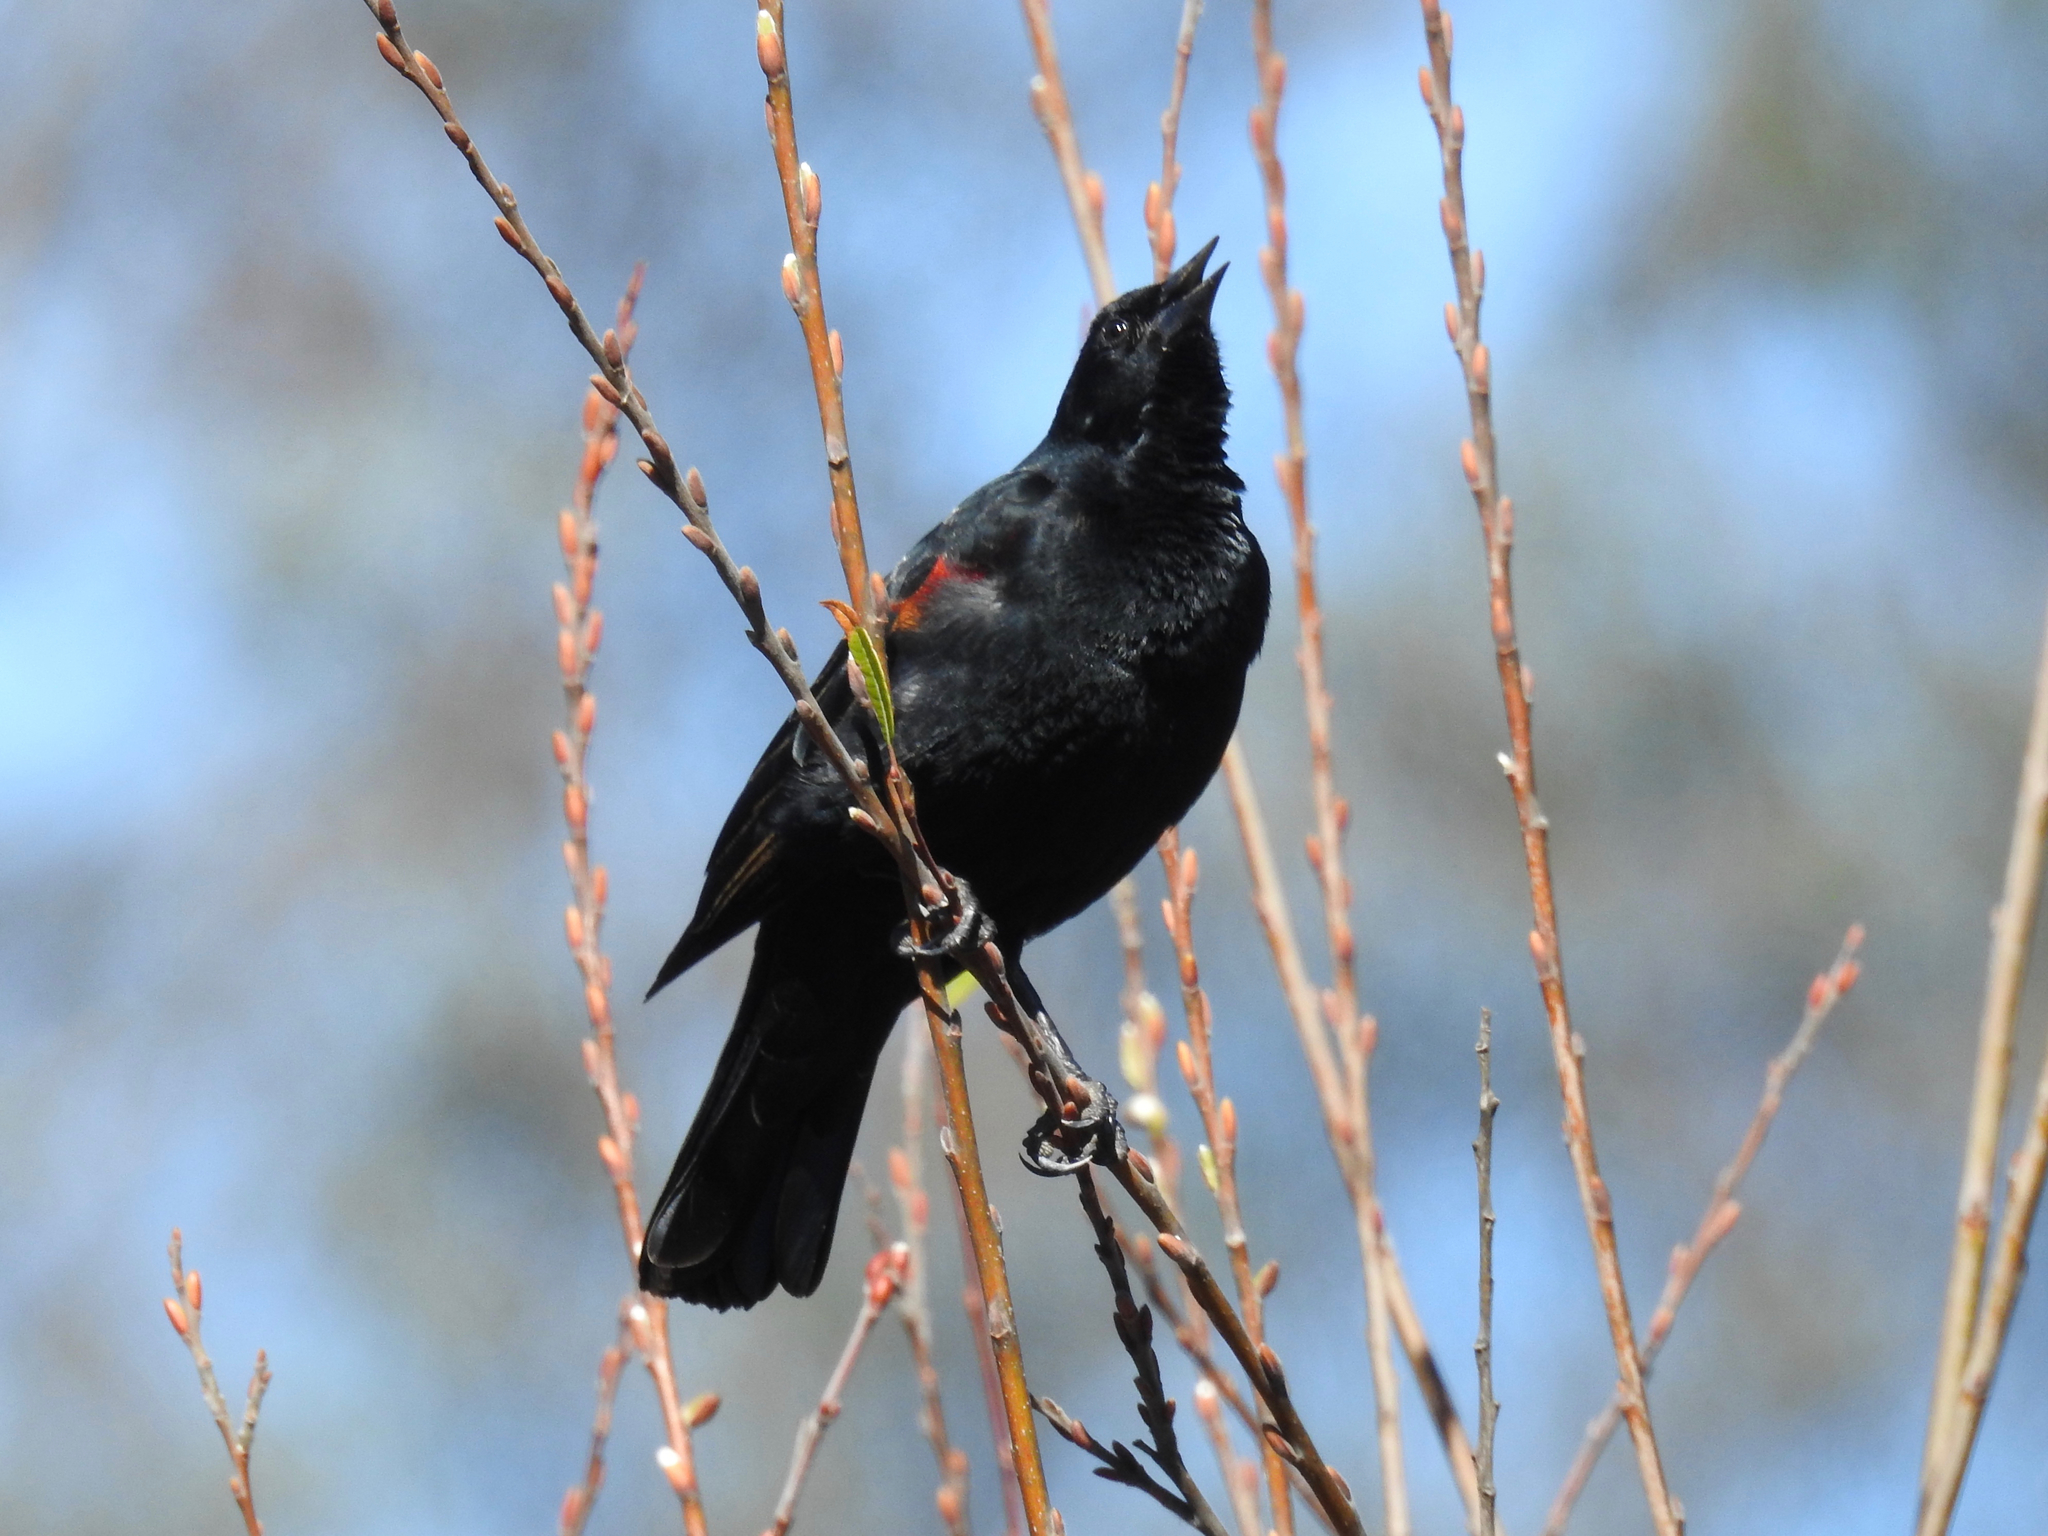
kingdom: Animalia
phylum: Chordata
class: Aves
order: Passeriformes
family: Icteridae
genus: Agelaius
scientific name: Agelaius phoeniceus
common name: Red-winged blackbird
